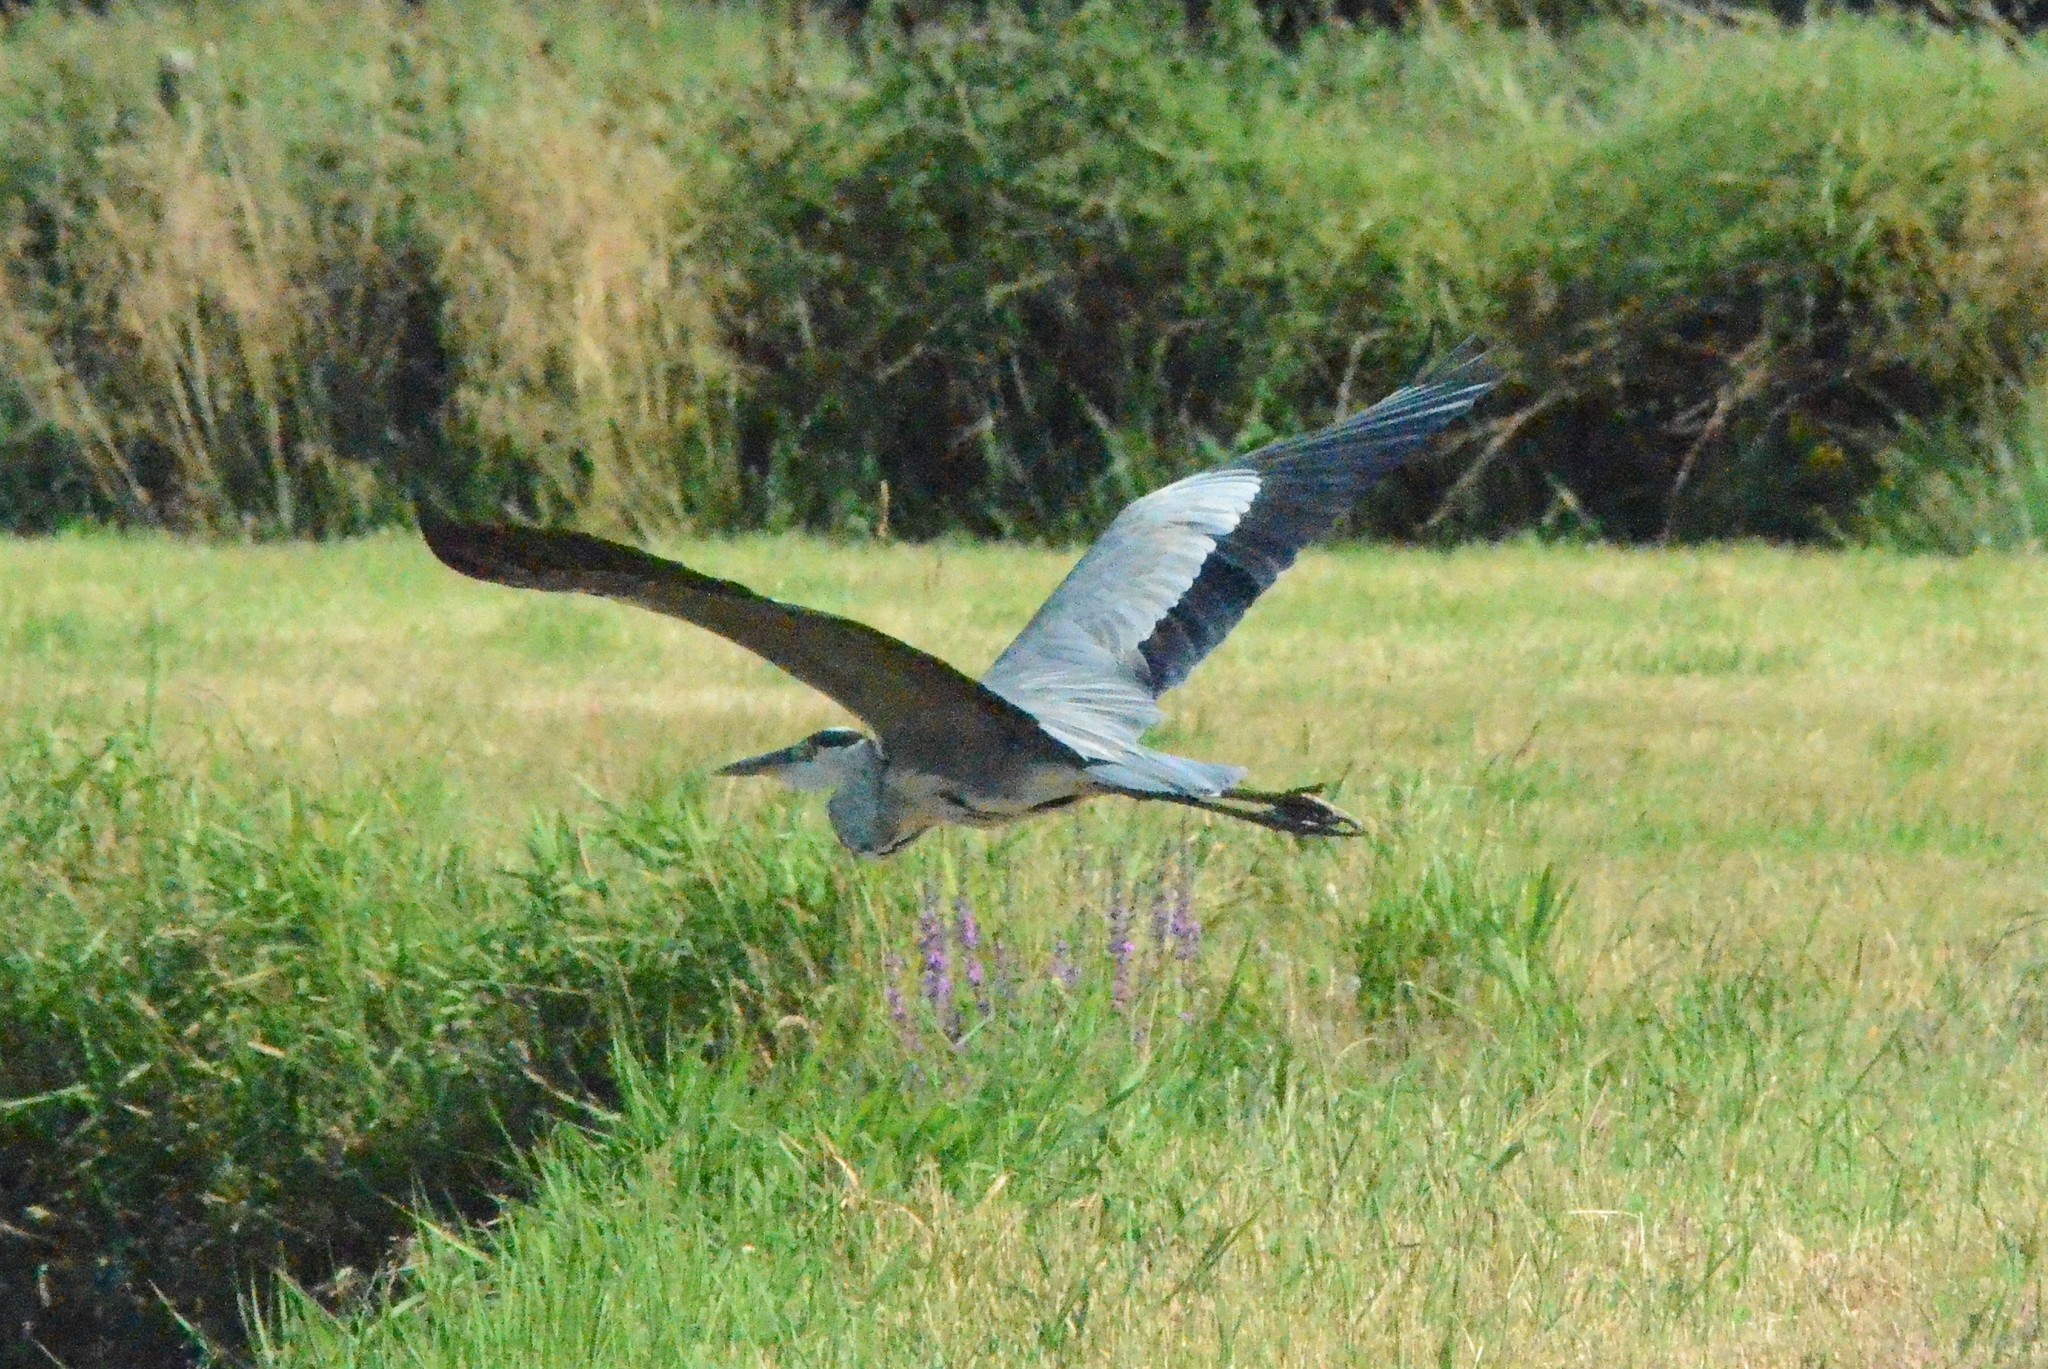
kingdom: Animalia
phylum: Chordata
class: Aves
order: Pelecaniformes
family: Ardeidae
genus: Ardea
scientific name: Ardea cinerea
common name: Grey heron
